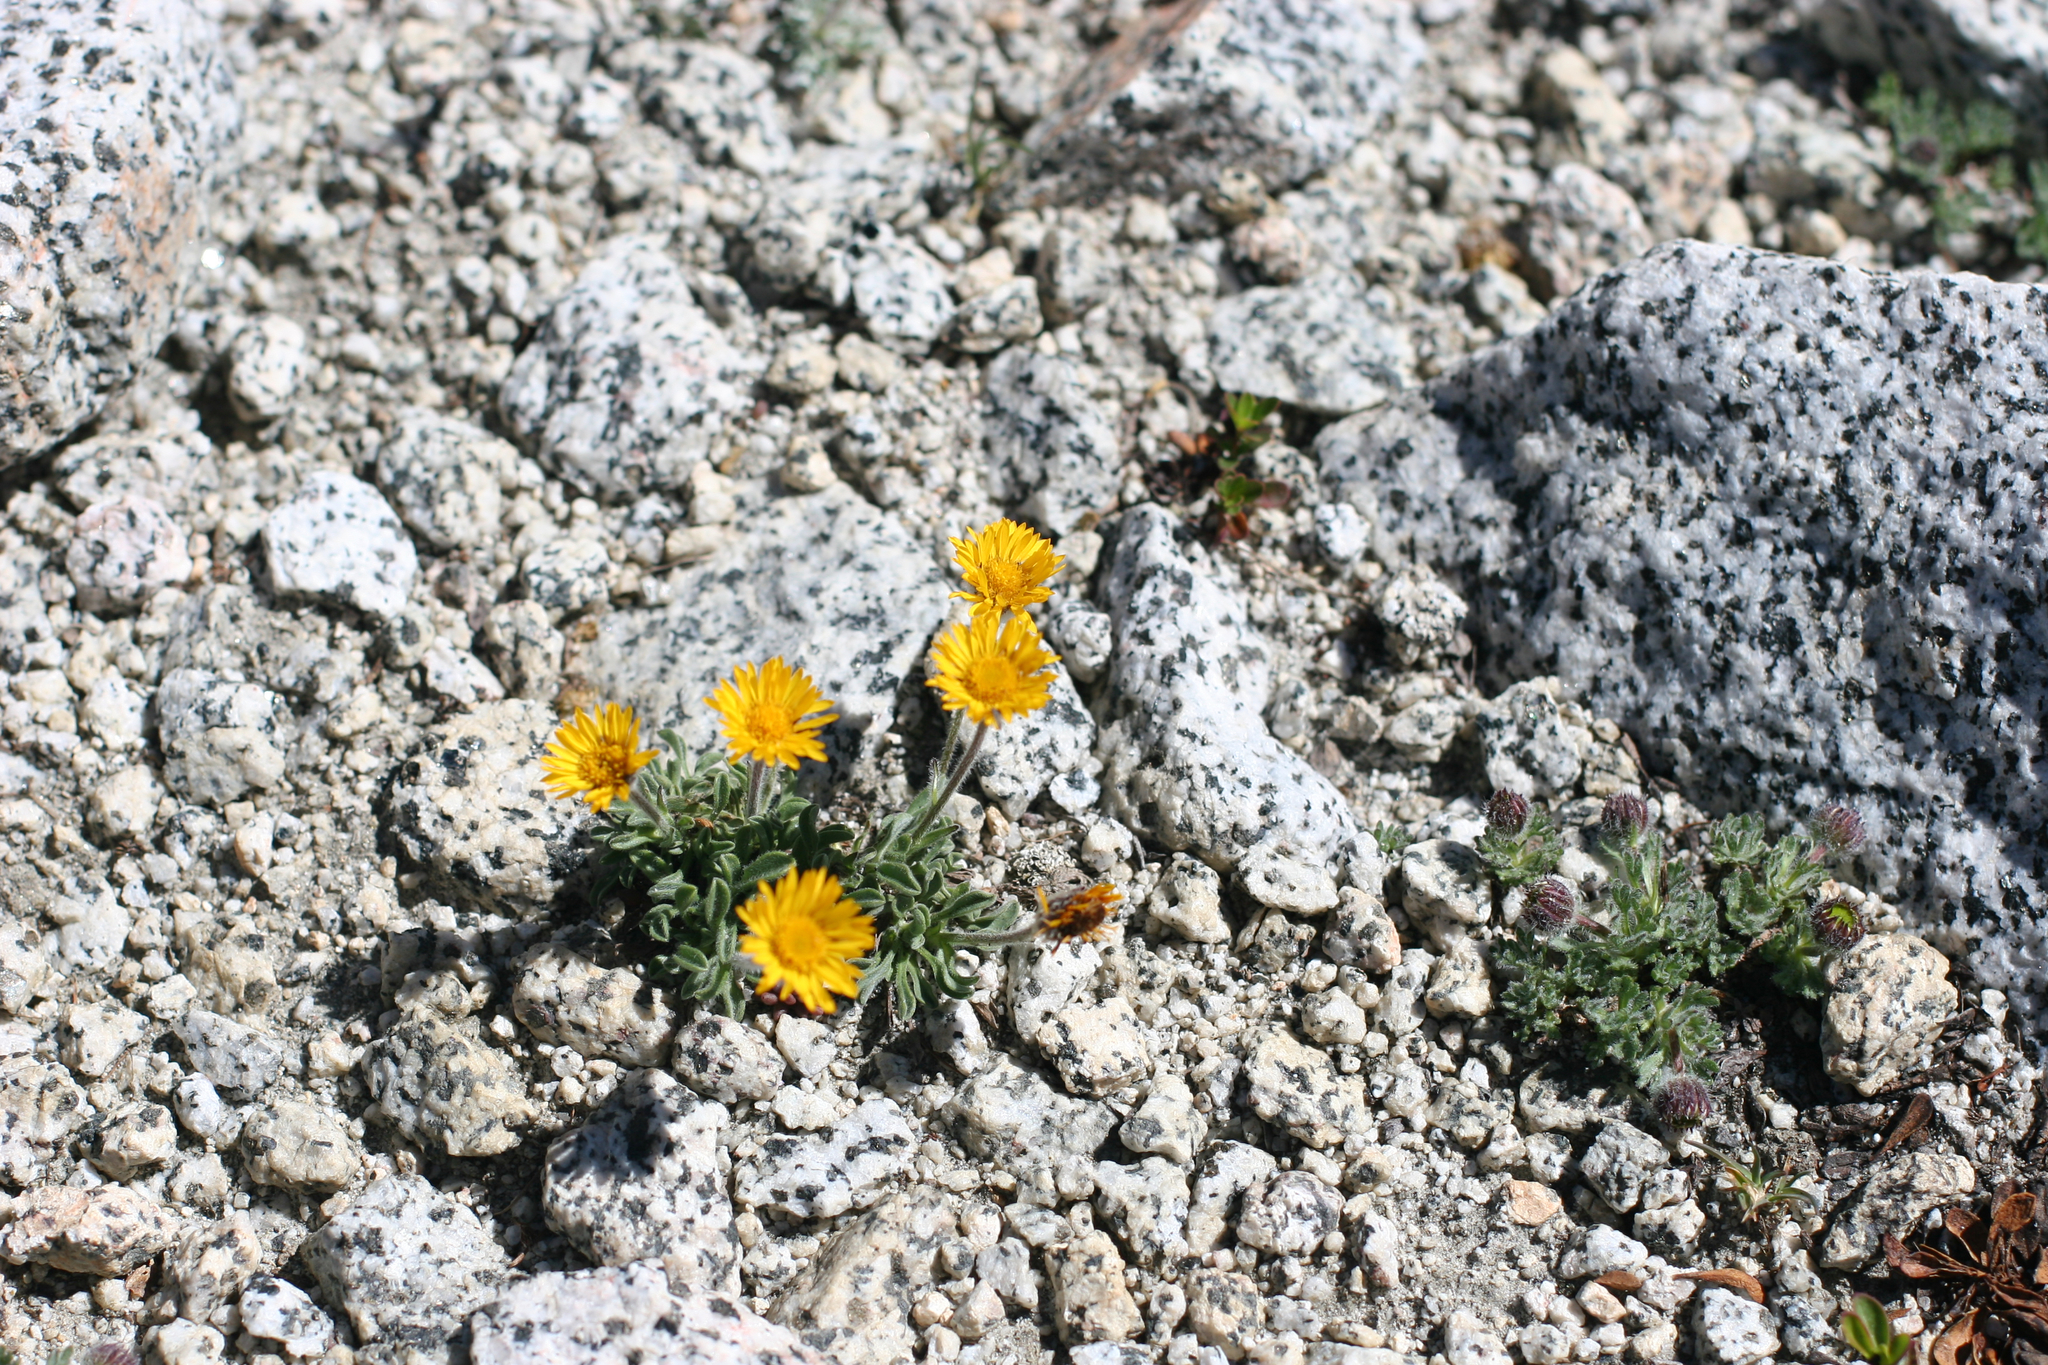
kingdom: Plantae
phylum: Tracheophyta
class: Magnoliopsida
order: Asterales
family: Asteraceae
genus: Erigeron
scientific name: Erigeron aureus
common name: Alpine yellow fleabane
